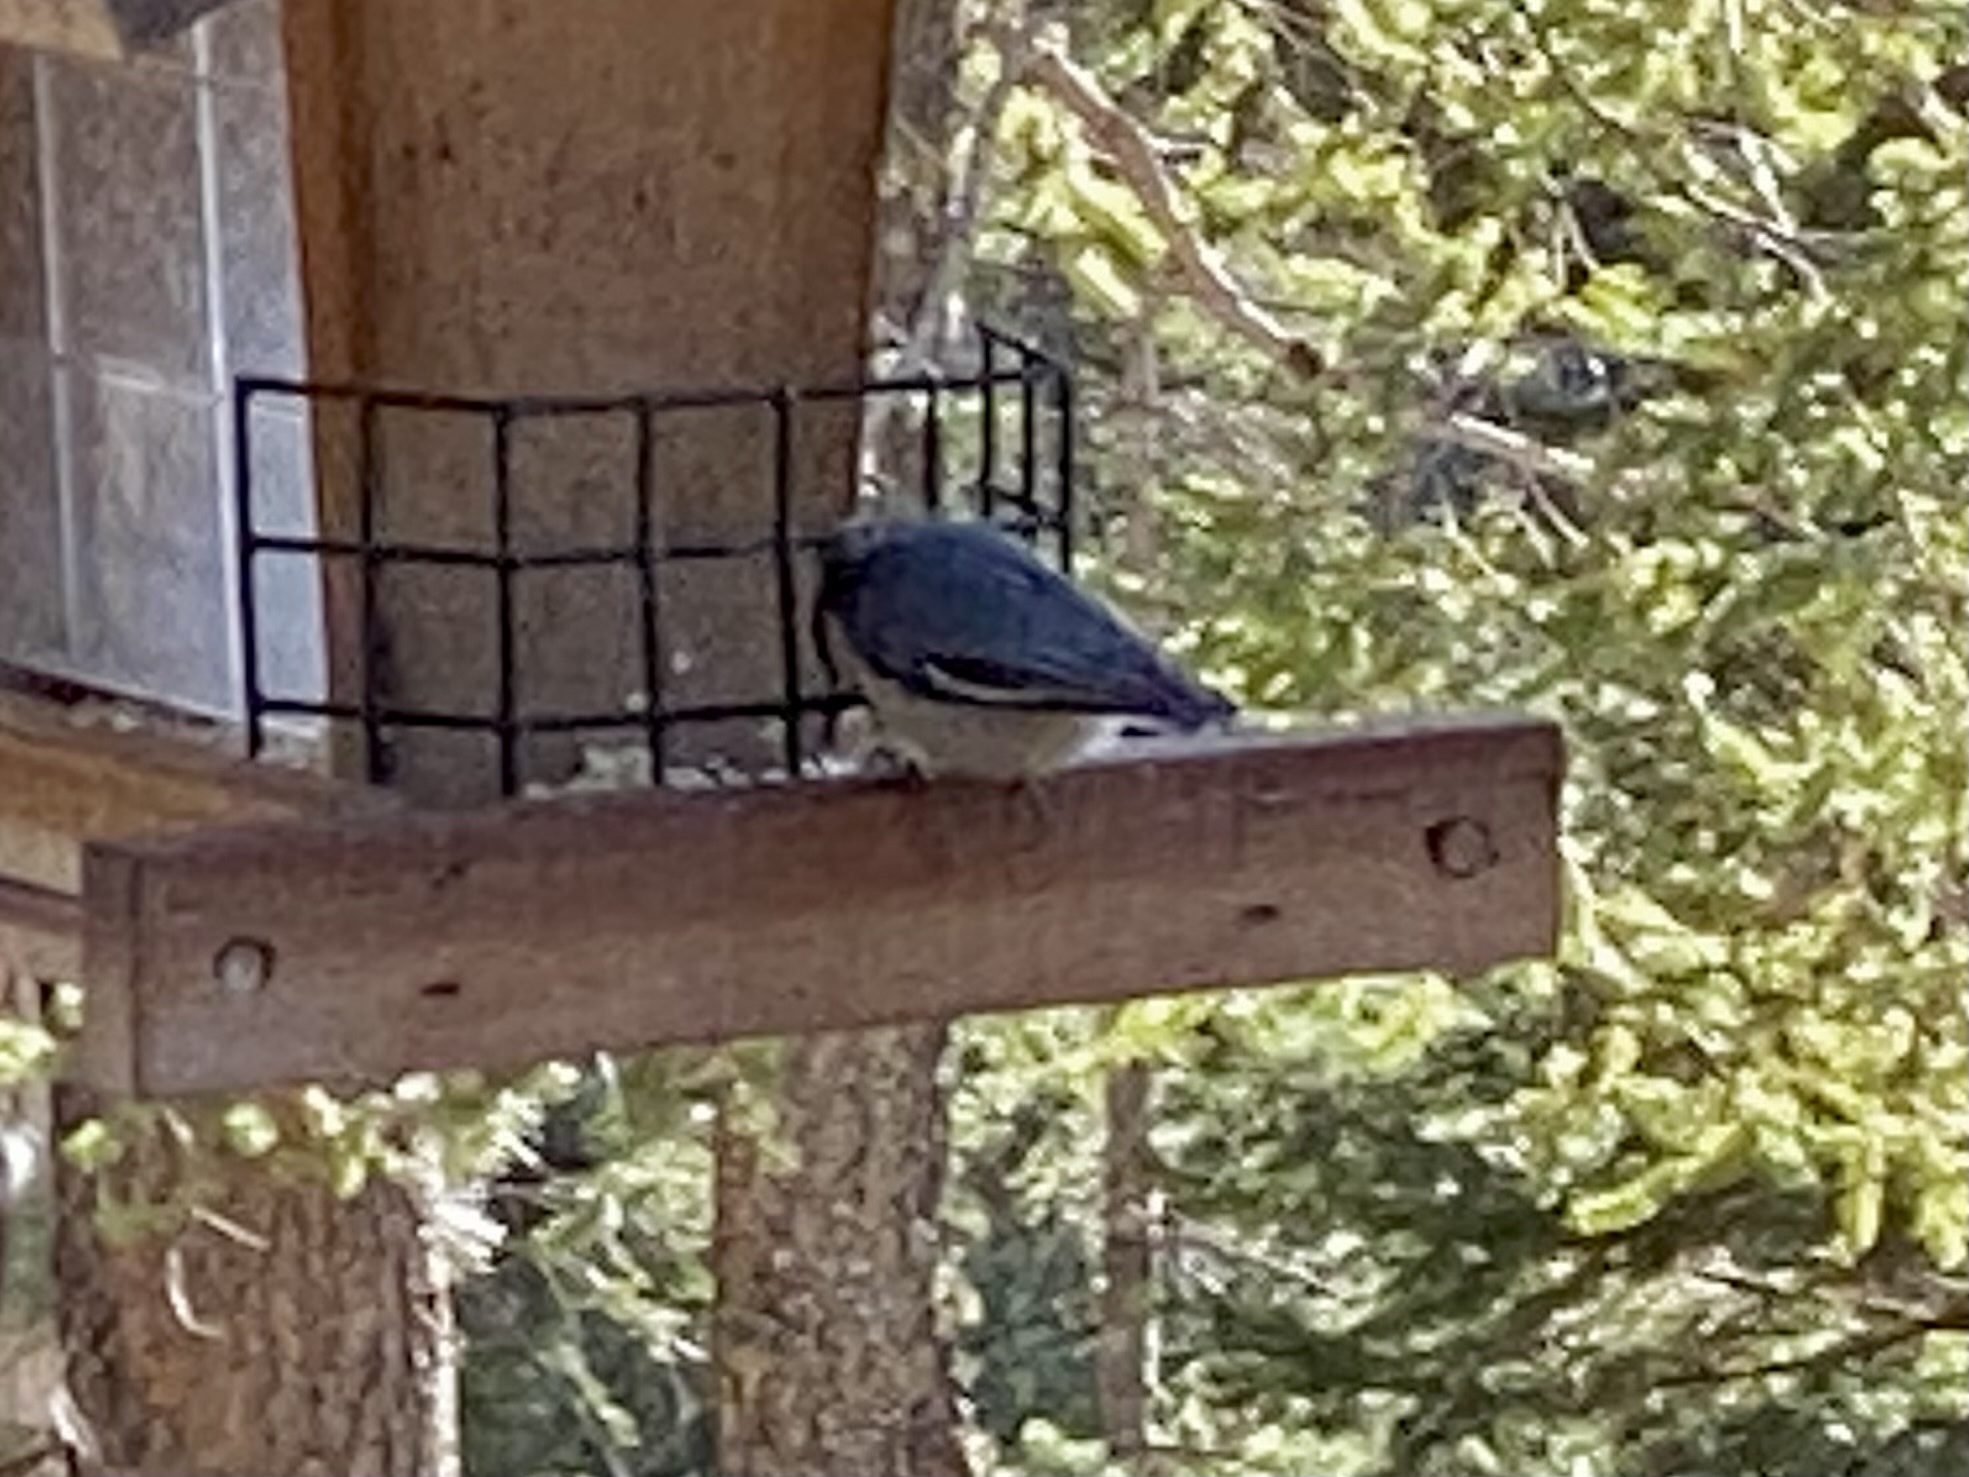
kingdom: Animalia
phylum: Chordata
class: Aves
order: Passeriformes
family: Sittidae
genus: Sitta
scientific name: Sitta pygmaea
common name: Pygmy nuthatch
